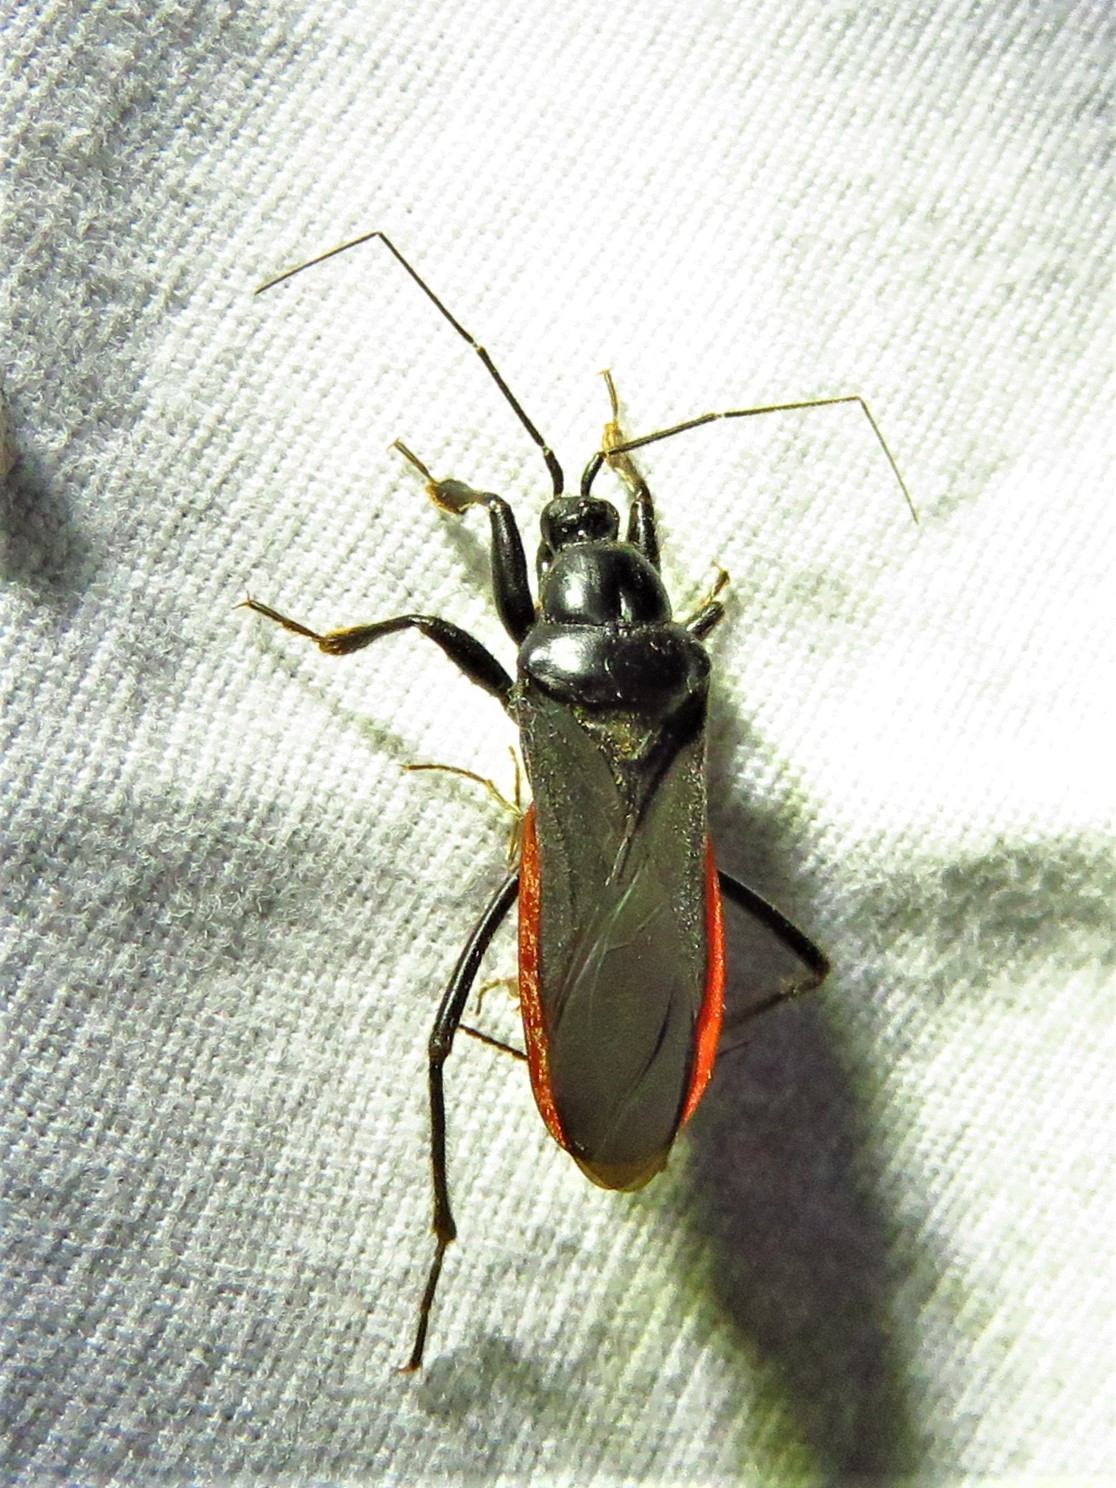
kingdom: Animalia
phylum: Arthropoda
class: Insecta
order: Hemiptera
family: Reduviidae
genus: Melanolestes
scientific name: Melanolestes picipes
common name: Assassin bug
